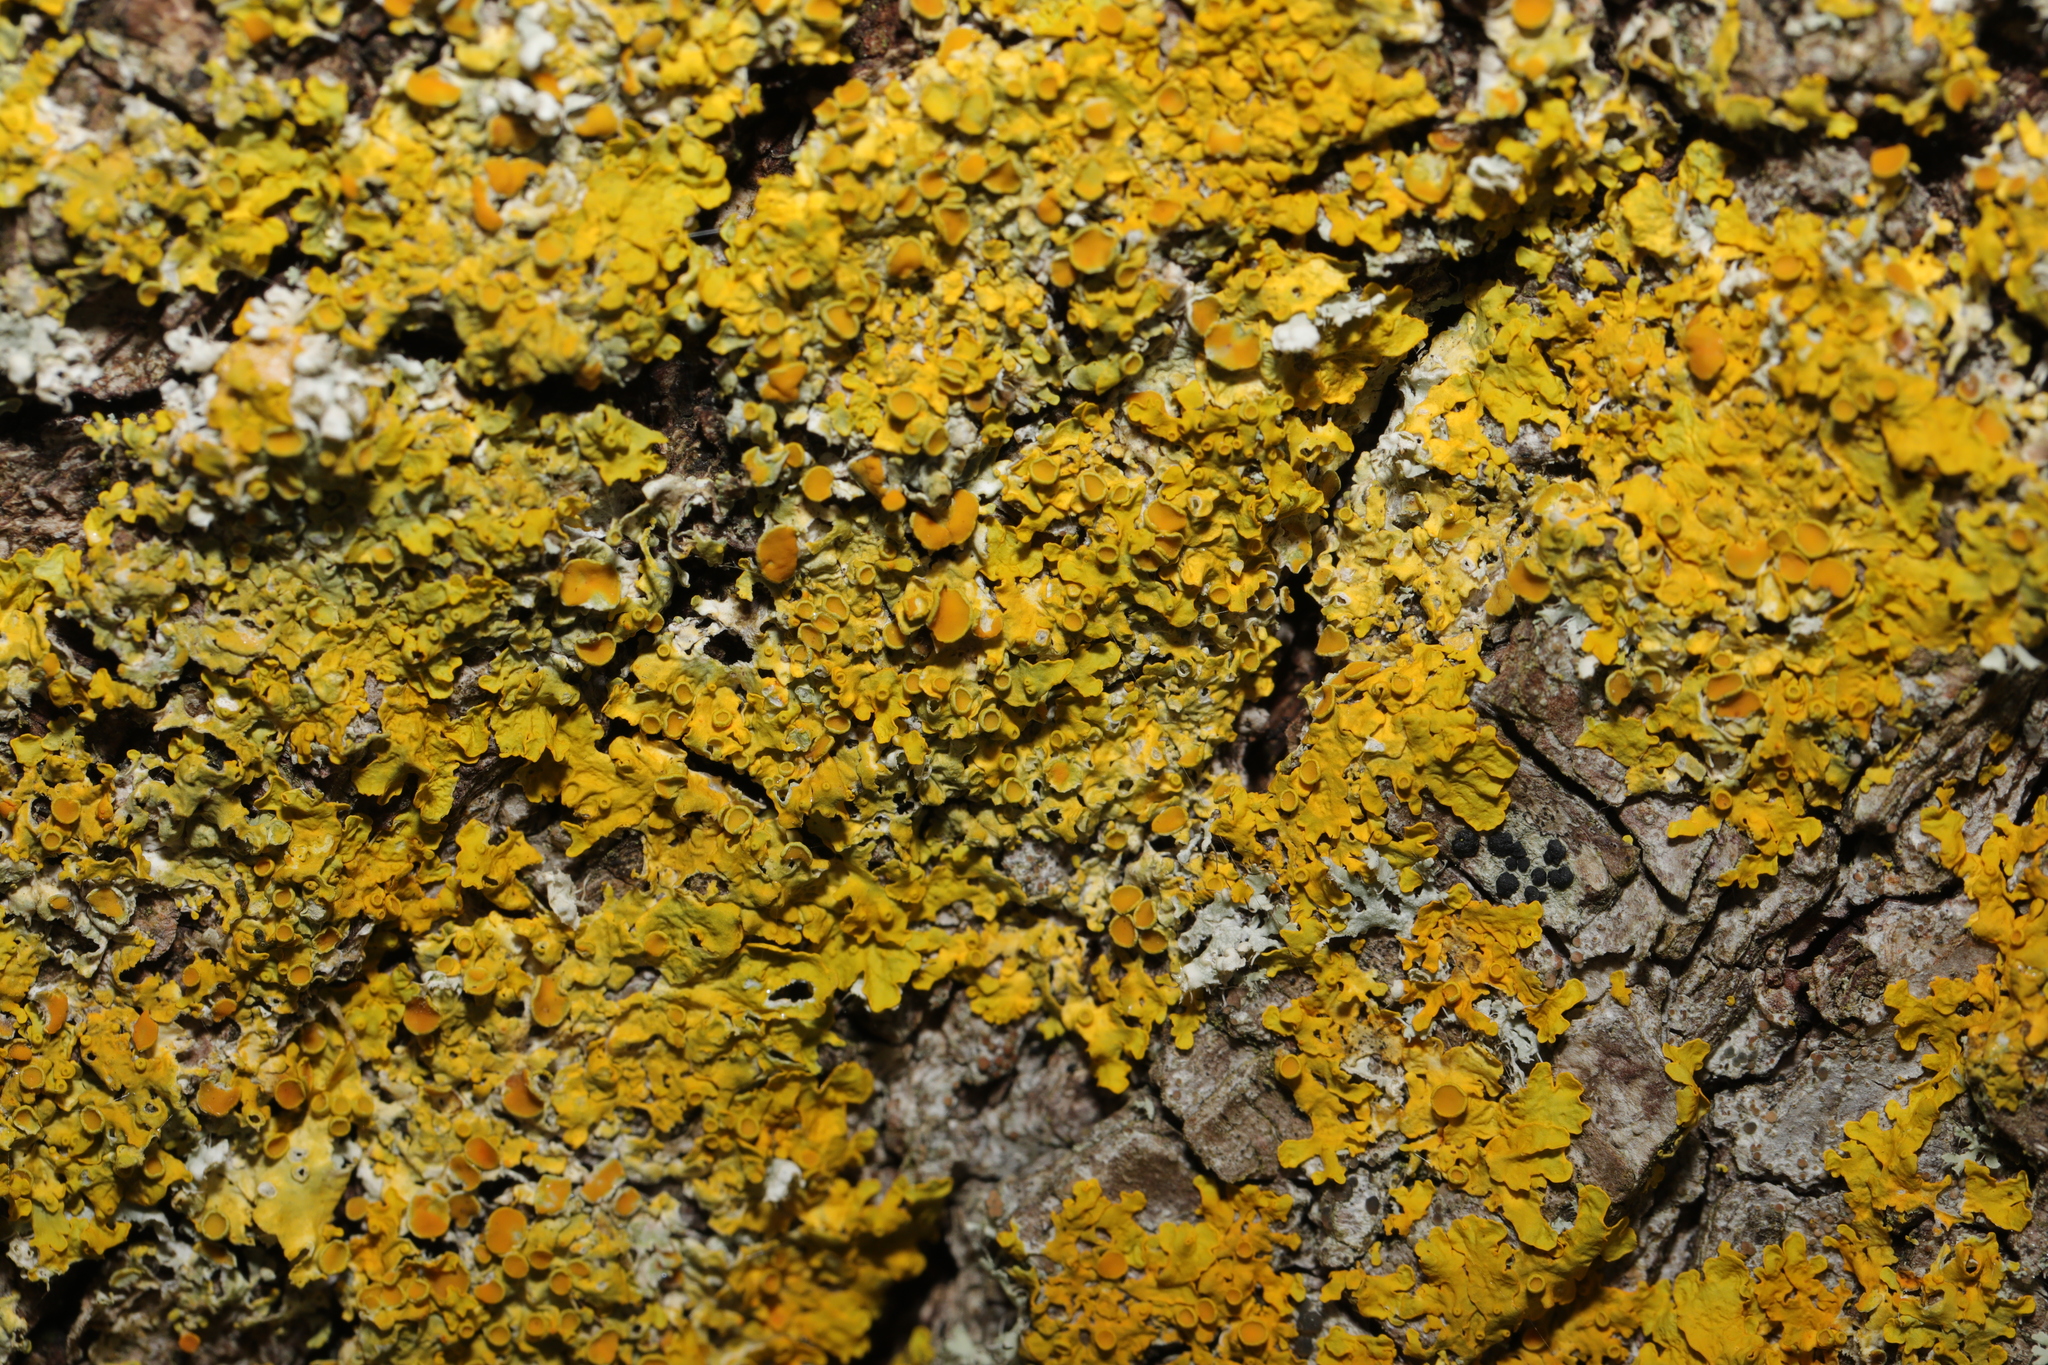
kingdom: Fungi
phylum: Ascomycota
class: Lecanoromycetes
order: Teloschistales
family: Teloschistaceae
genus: Xanthoria
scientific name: Xanthoria parietina
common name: Common orange lichen
